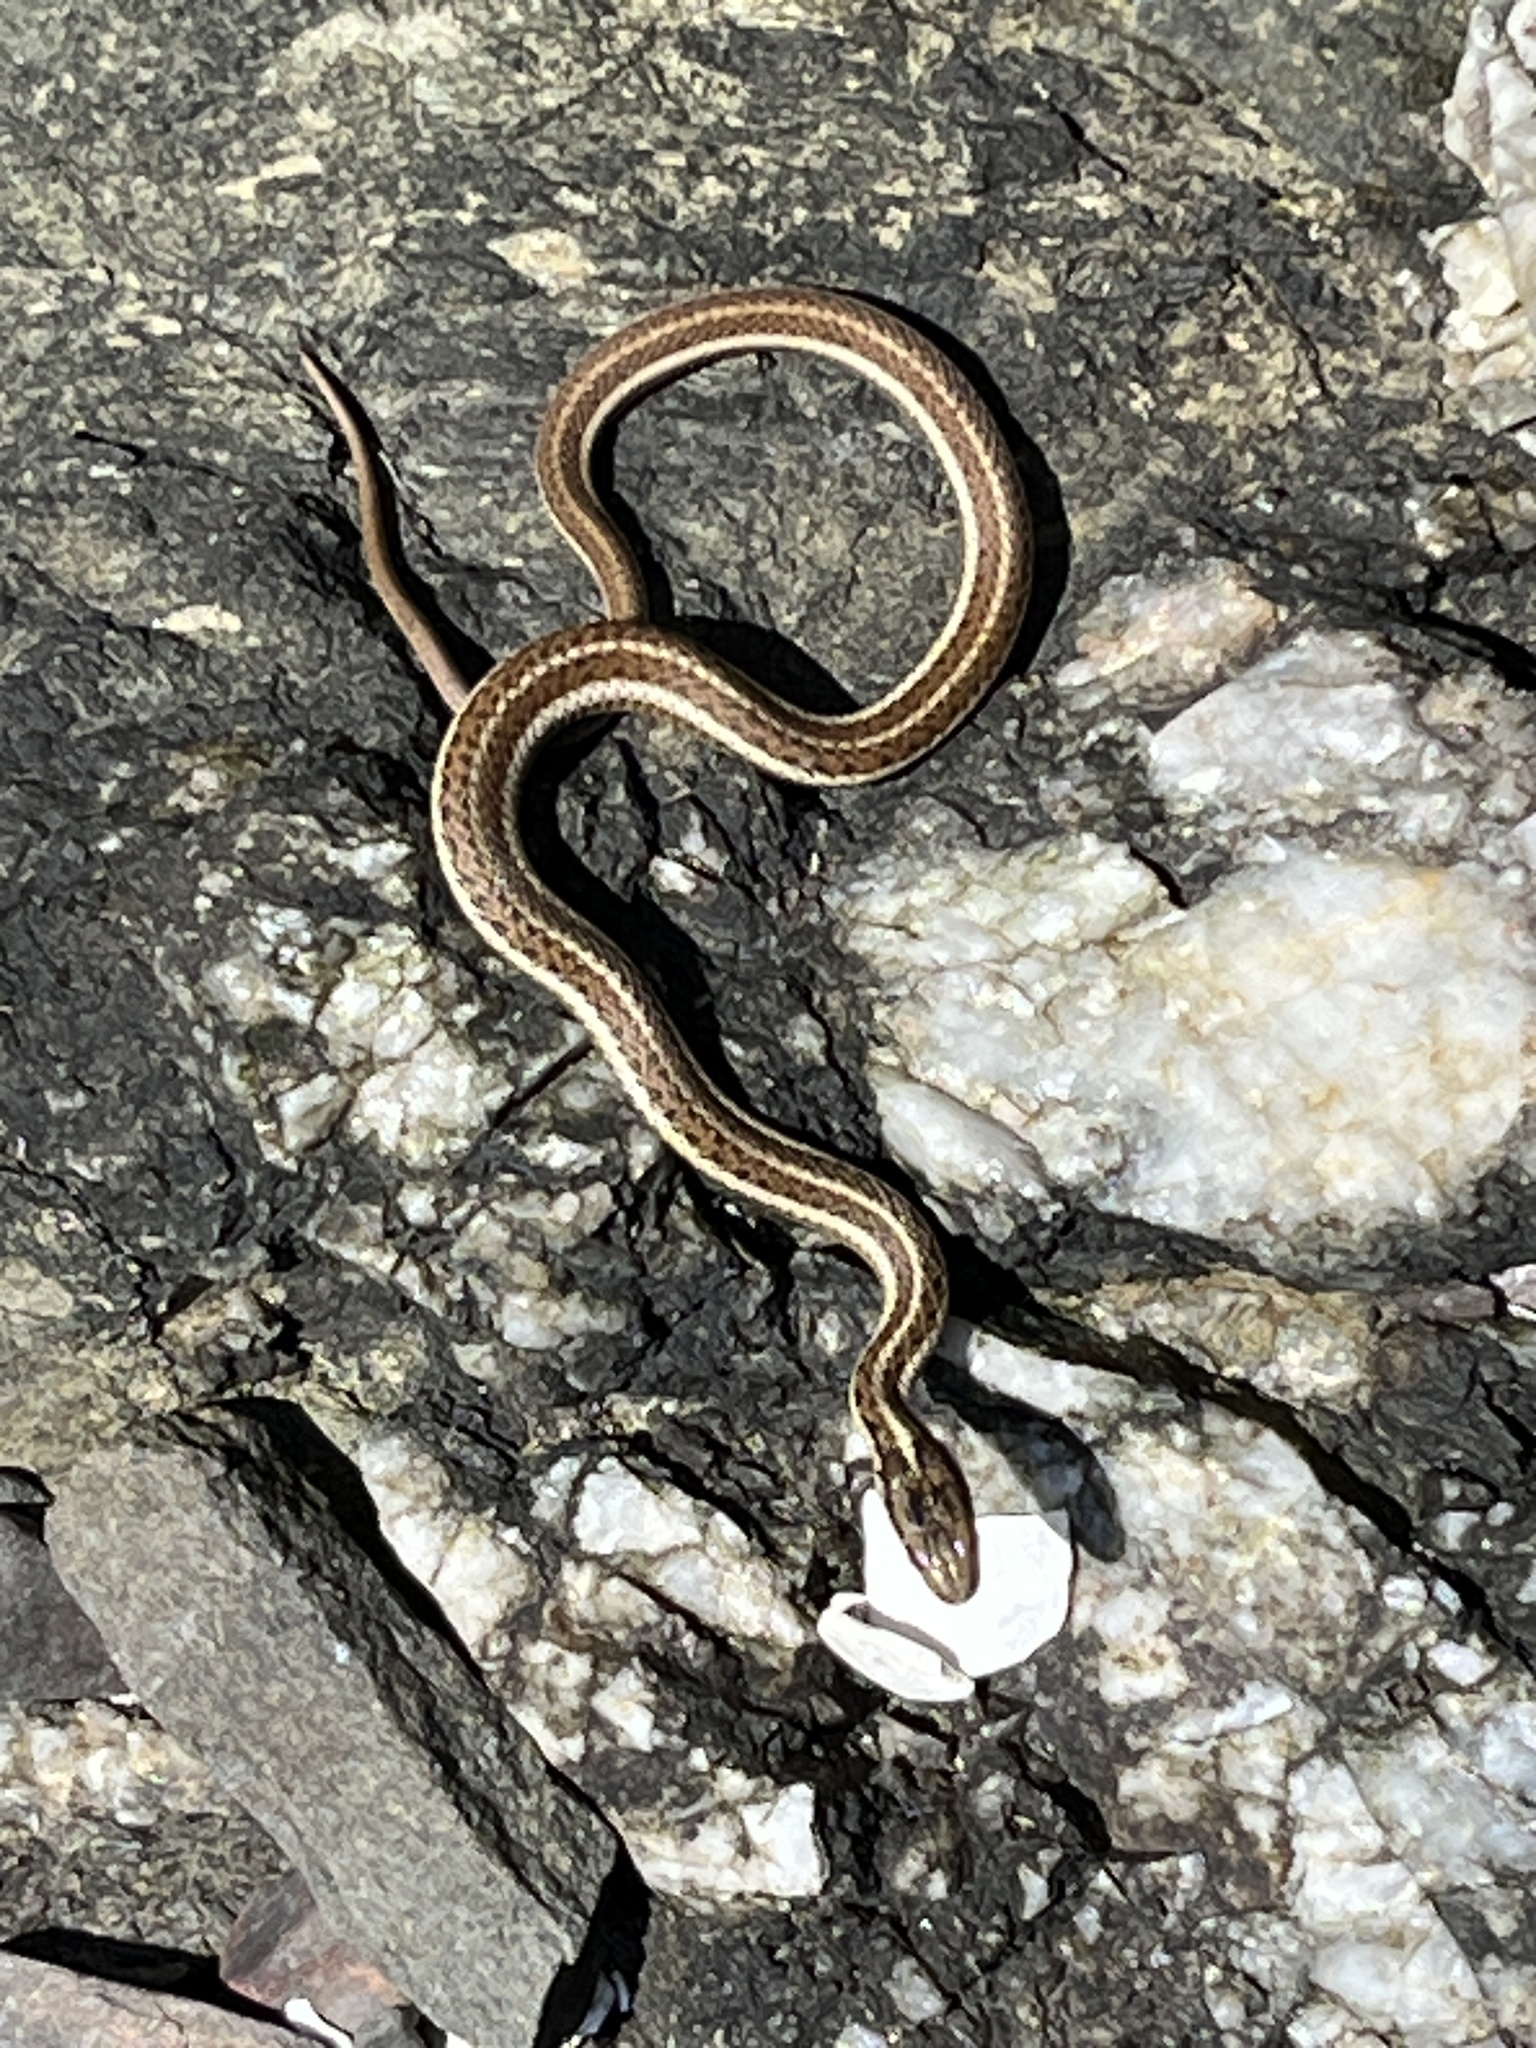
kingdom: Animalia
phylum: Chordata
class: Squamata
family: Colubridae
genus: Thamnophis
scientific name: Thamnophis ordinoides
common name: Northwestern garter snake
